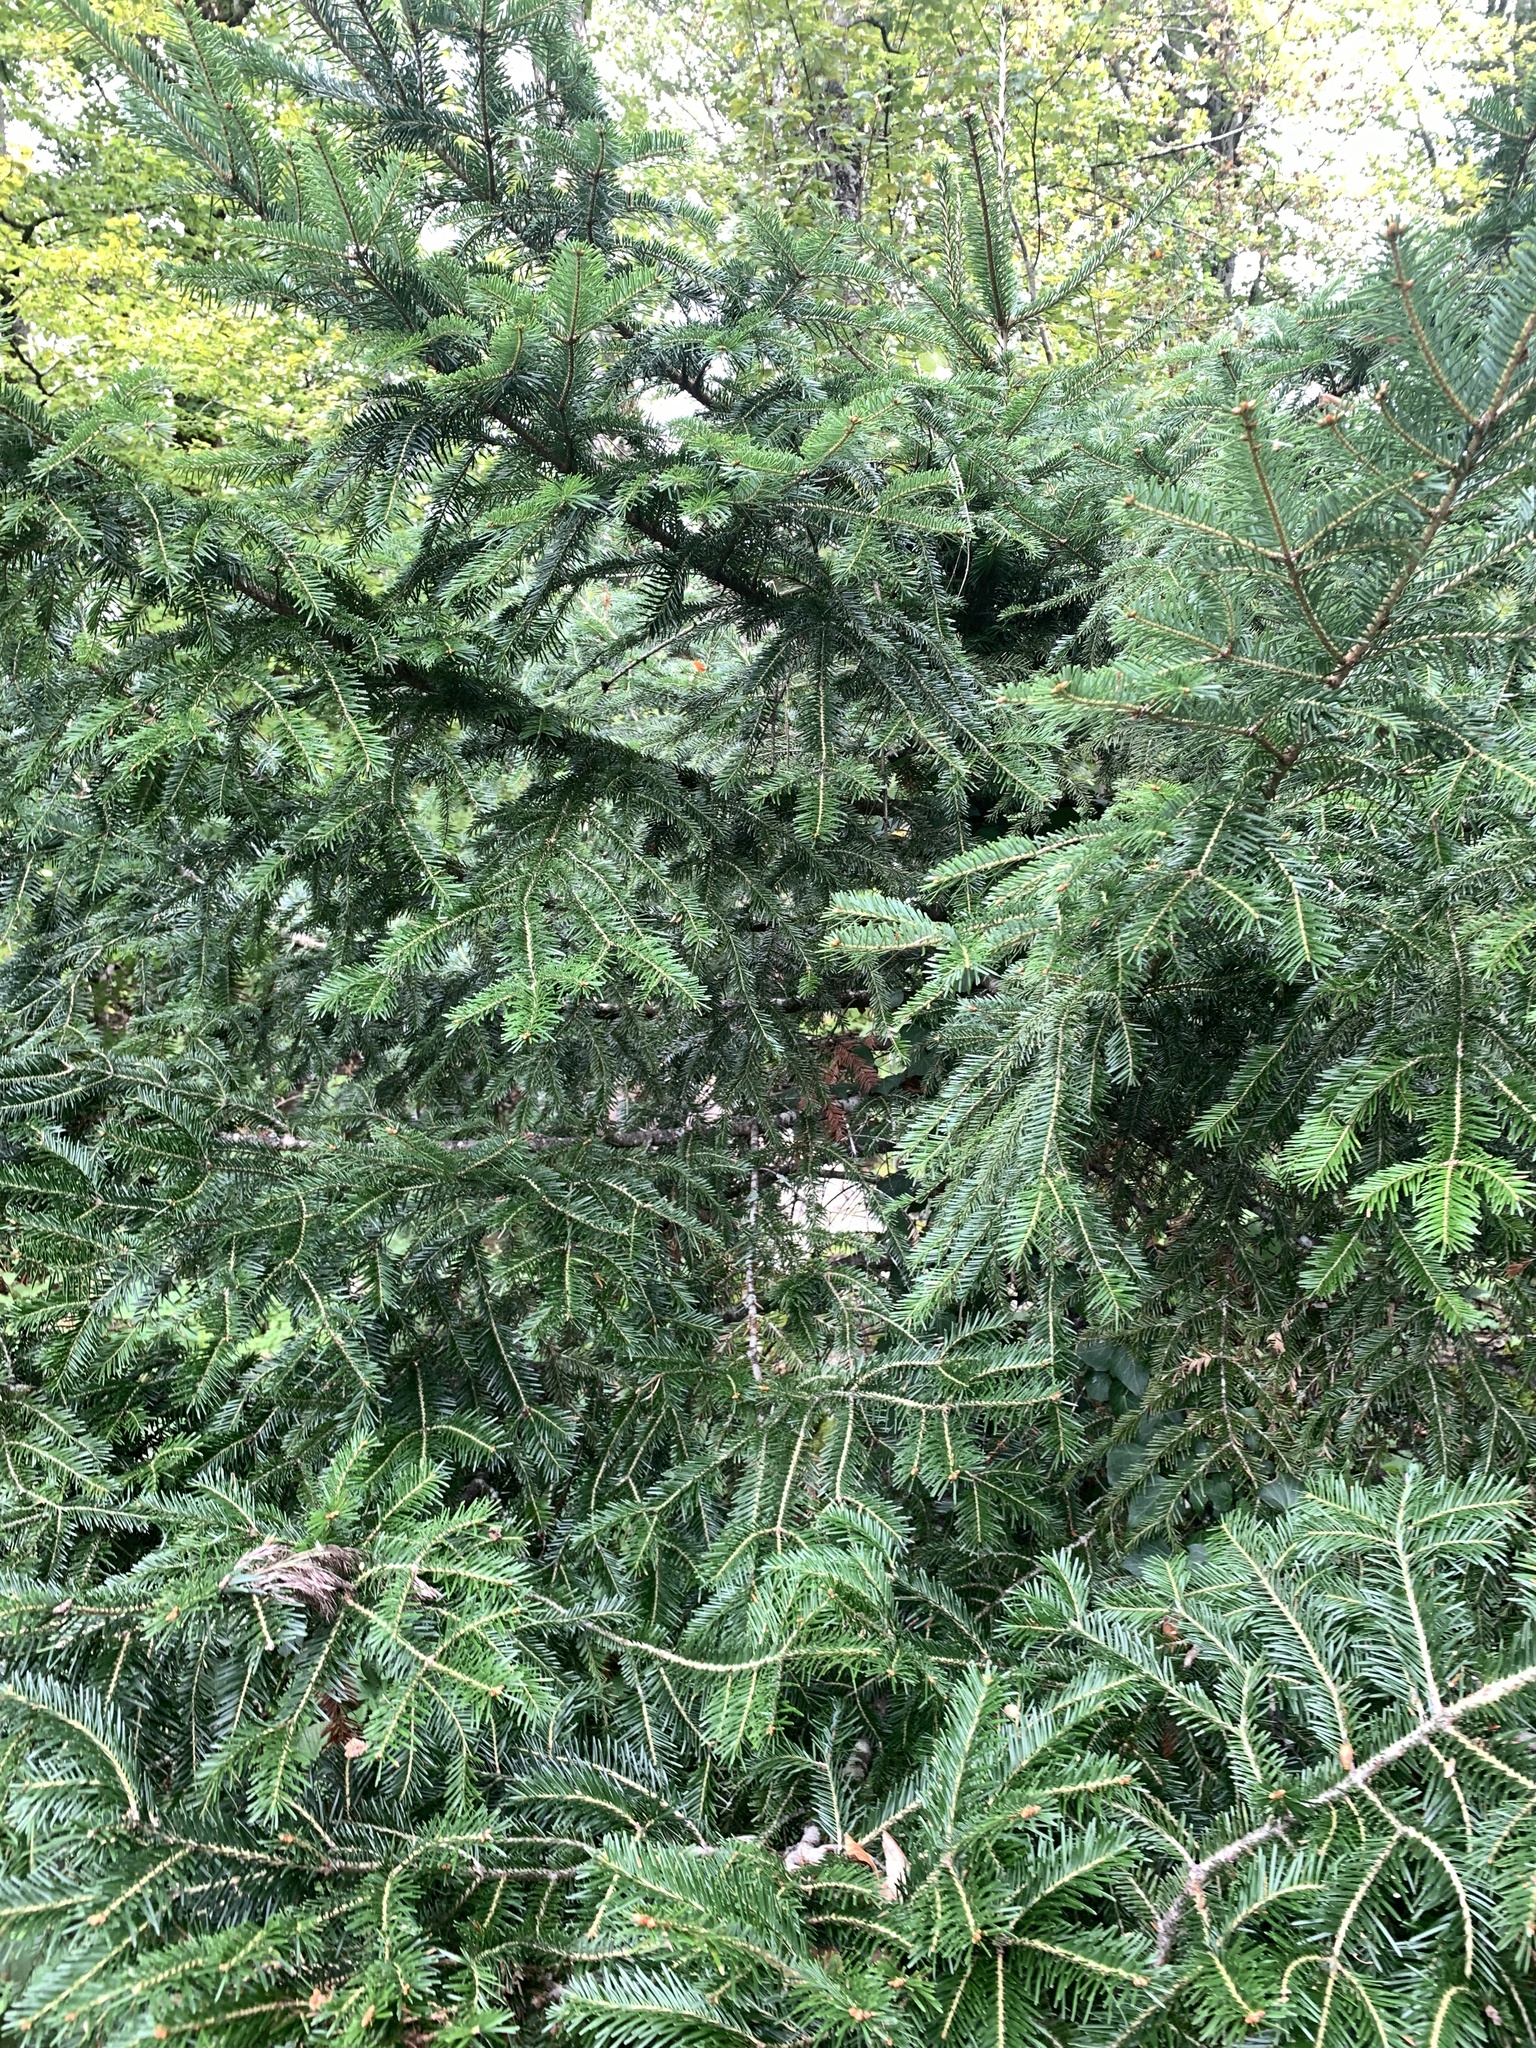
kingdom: Plantae
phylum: Tracheophyta
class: Pinopsida
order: Pinales
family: Pinaceae
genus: Abies
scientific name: Abies alba
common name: Silver fir
